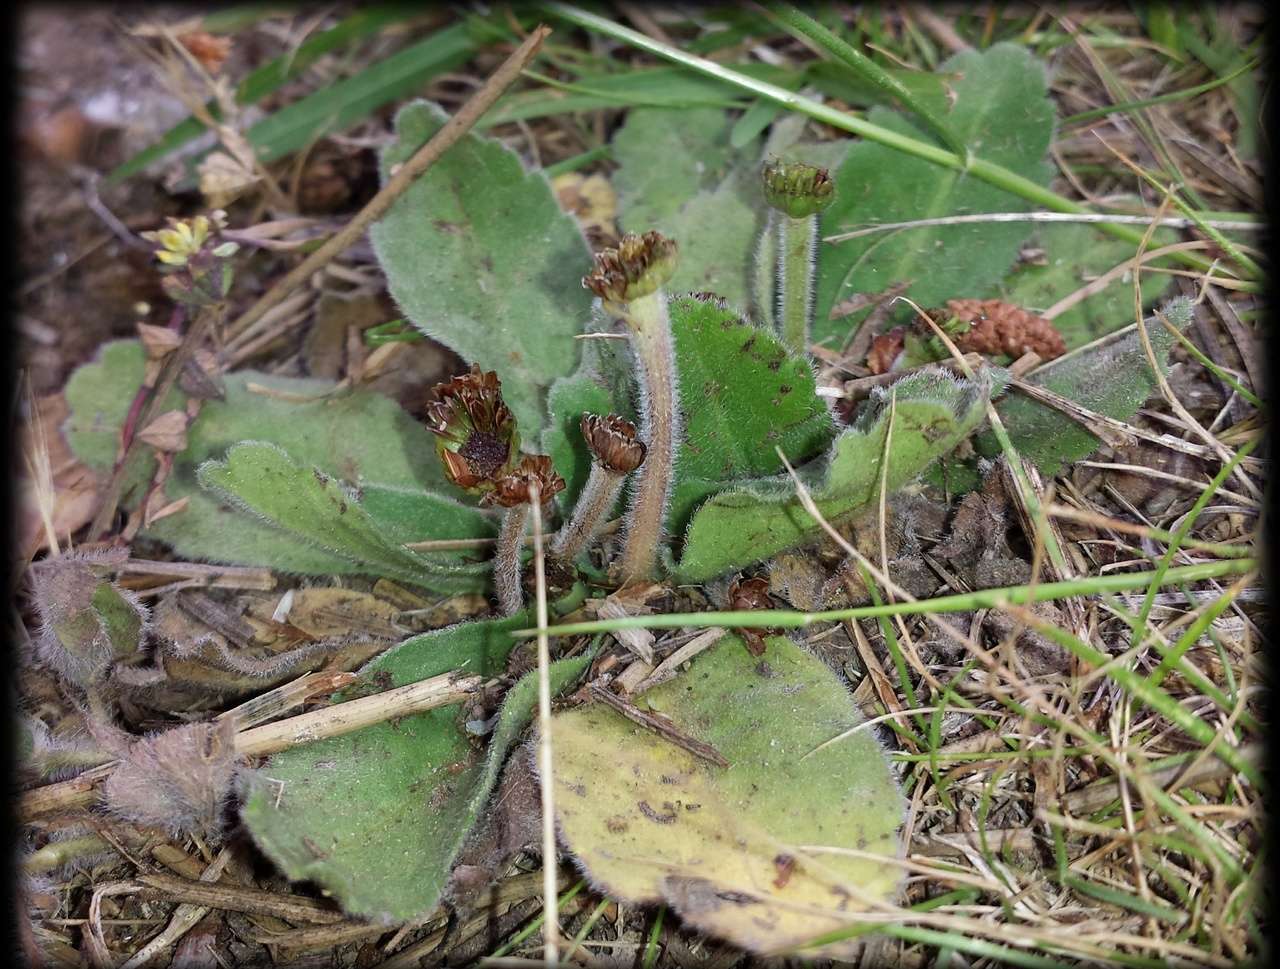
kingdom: Plantae
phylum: Tracheophyta
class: Magnoliopsida
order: Asterales
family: Asteraceae
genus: Solenogyne
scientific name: Solenogyne gunnii
